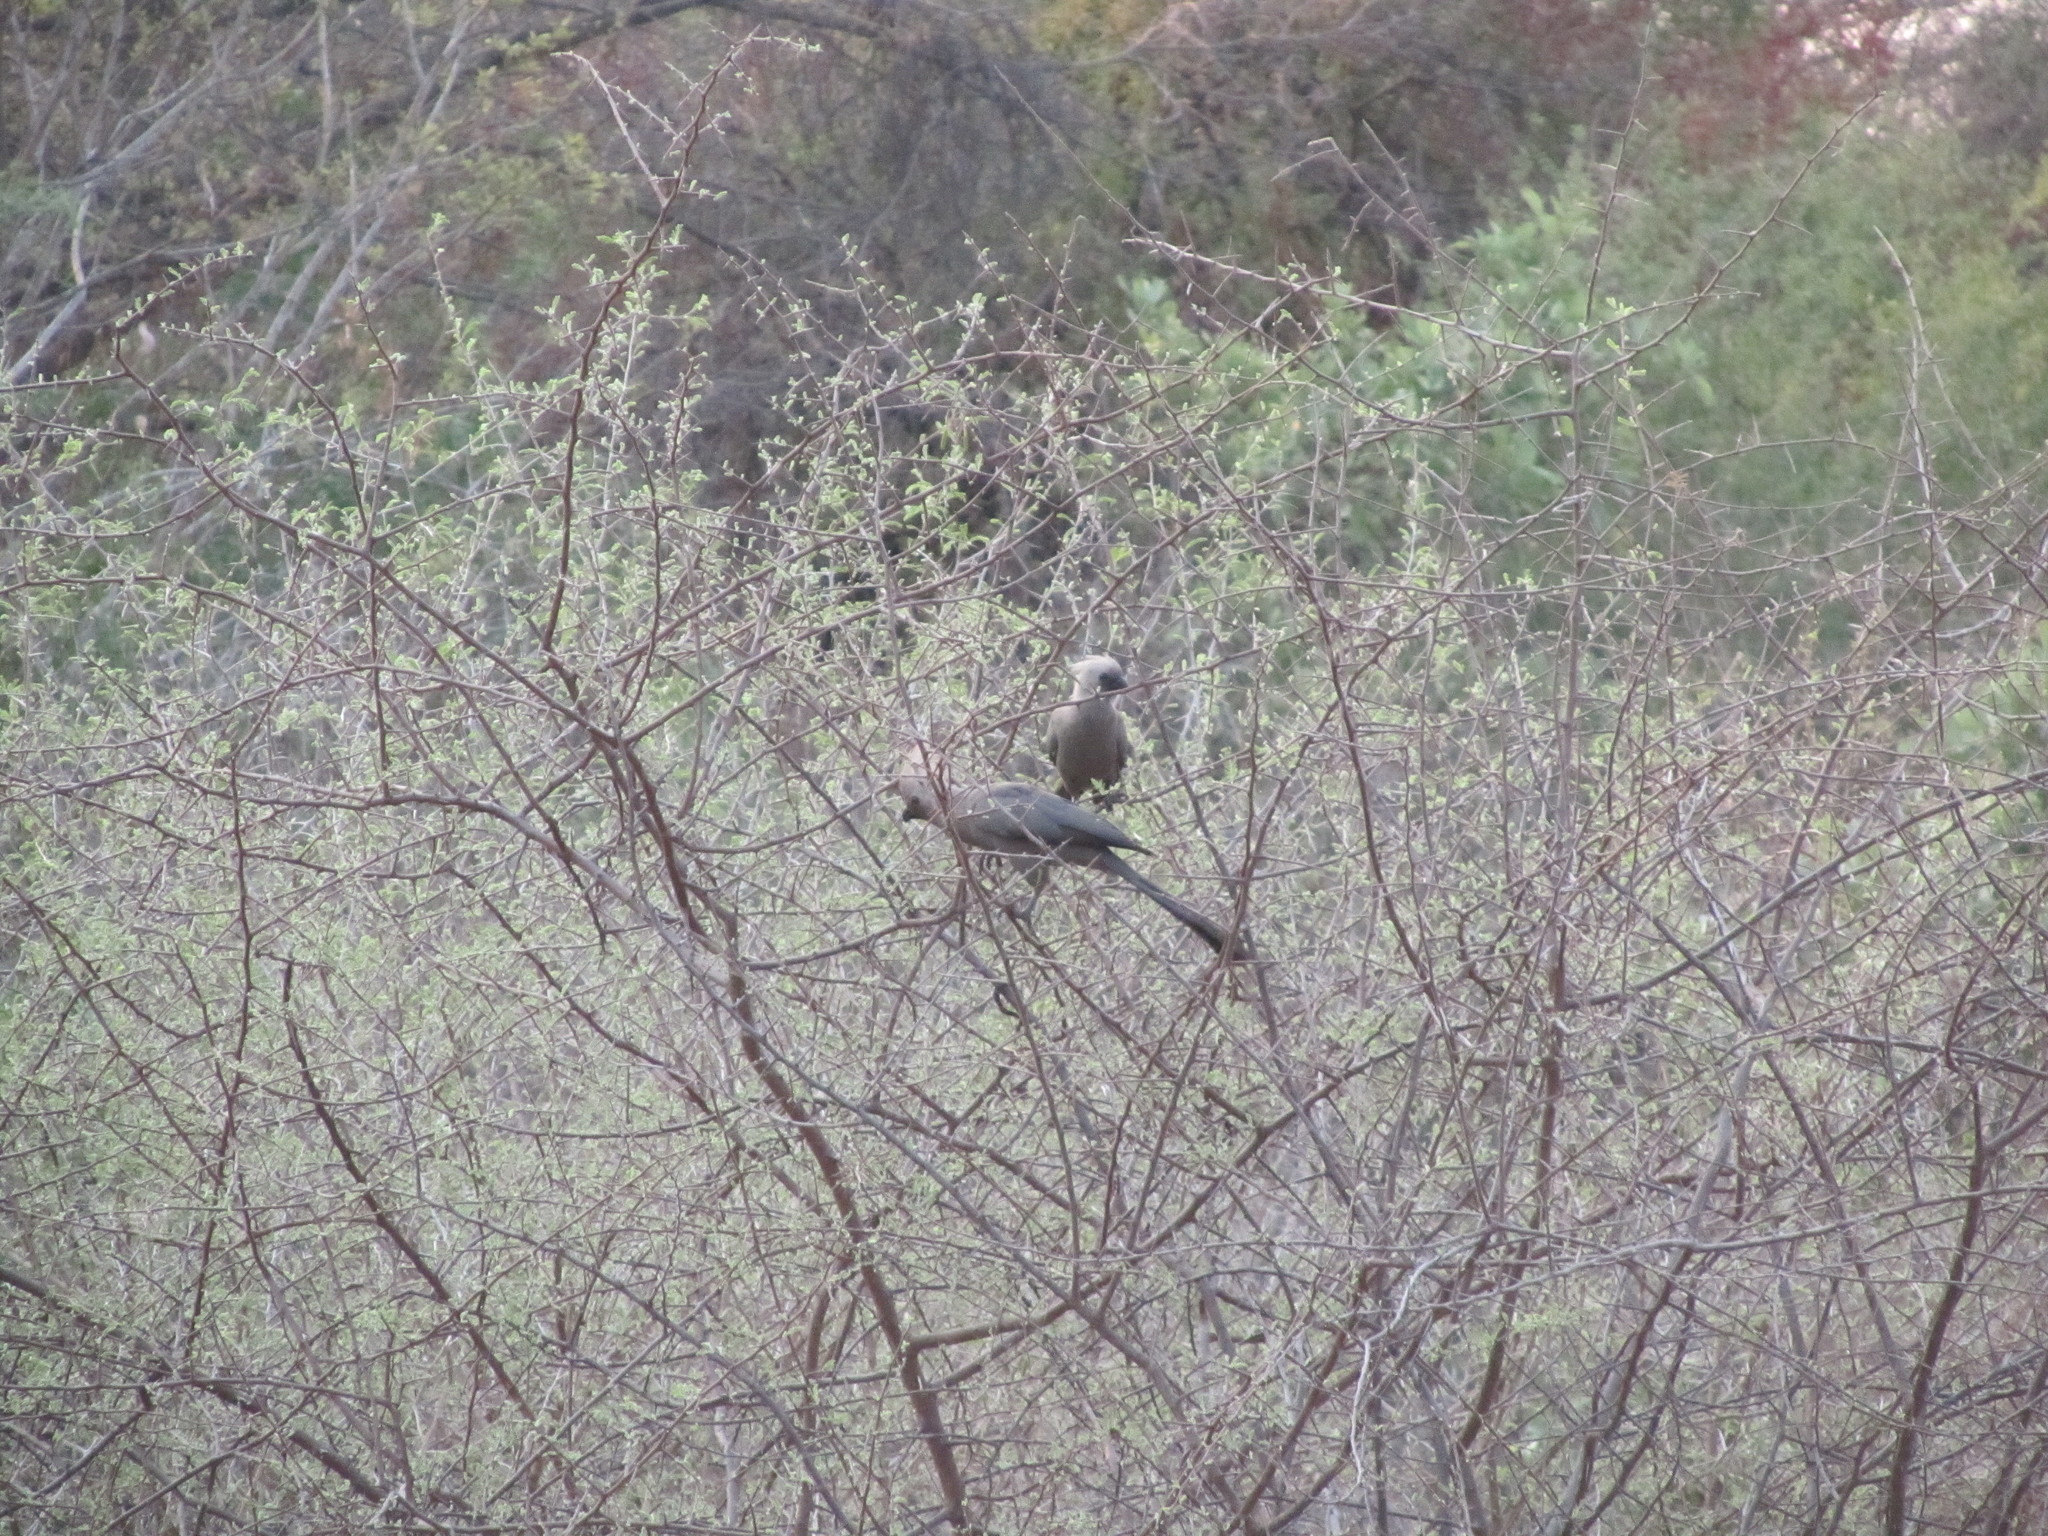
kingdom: Animalia
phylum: Chordata
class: Aves
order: Musophagiformes
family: Musophagidae
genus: Corythaixoides
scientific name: Corythaixoides concolor
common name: Grey go-away-bird
